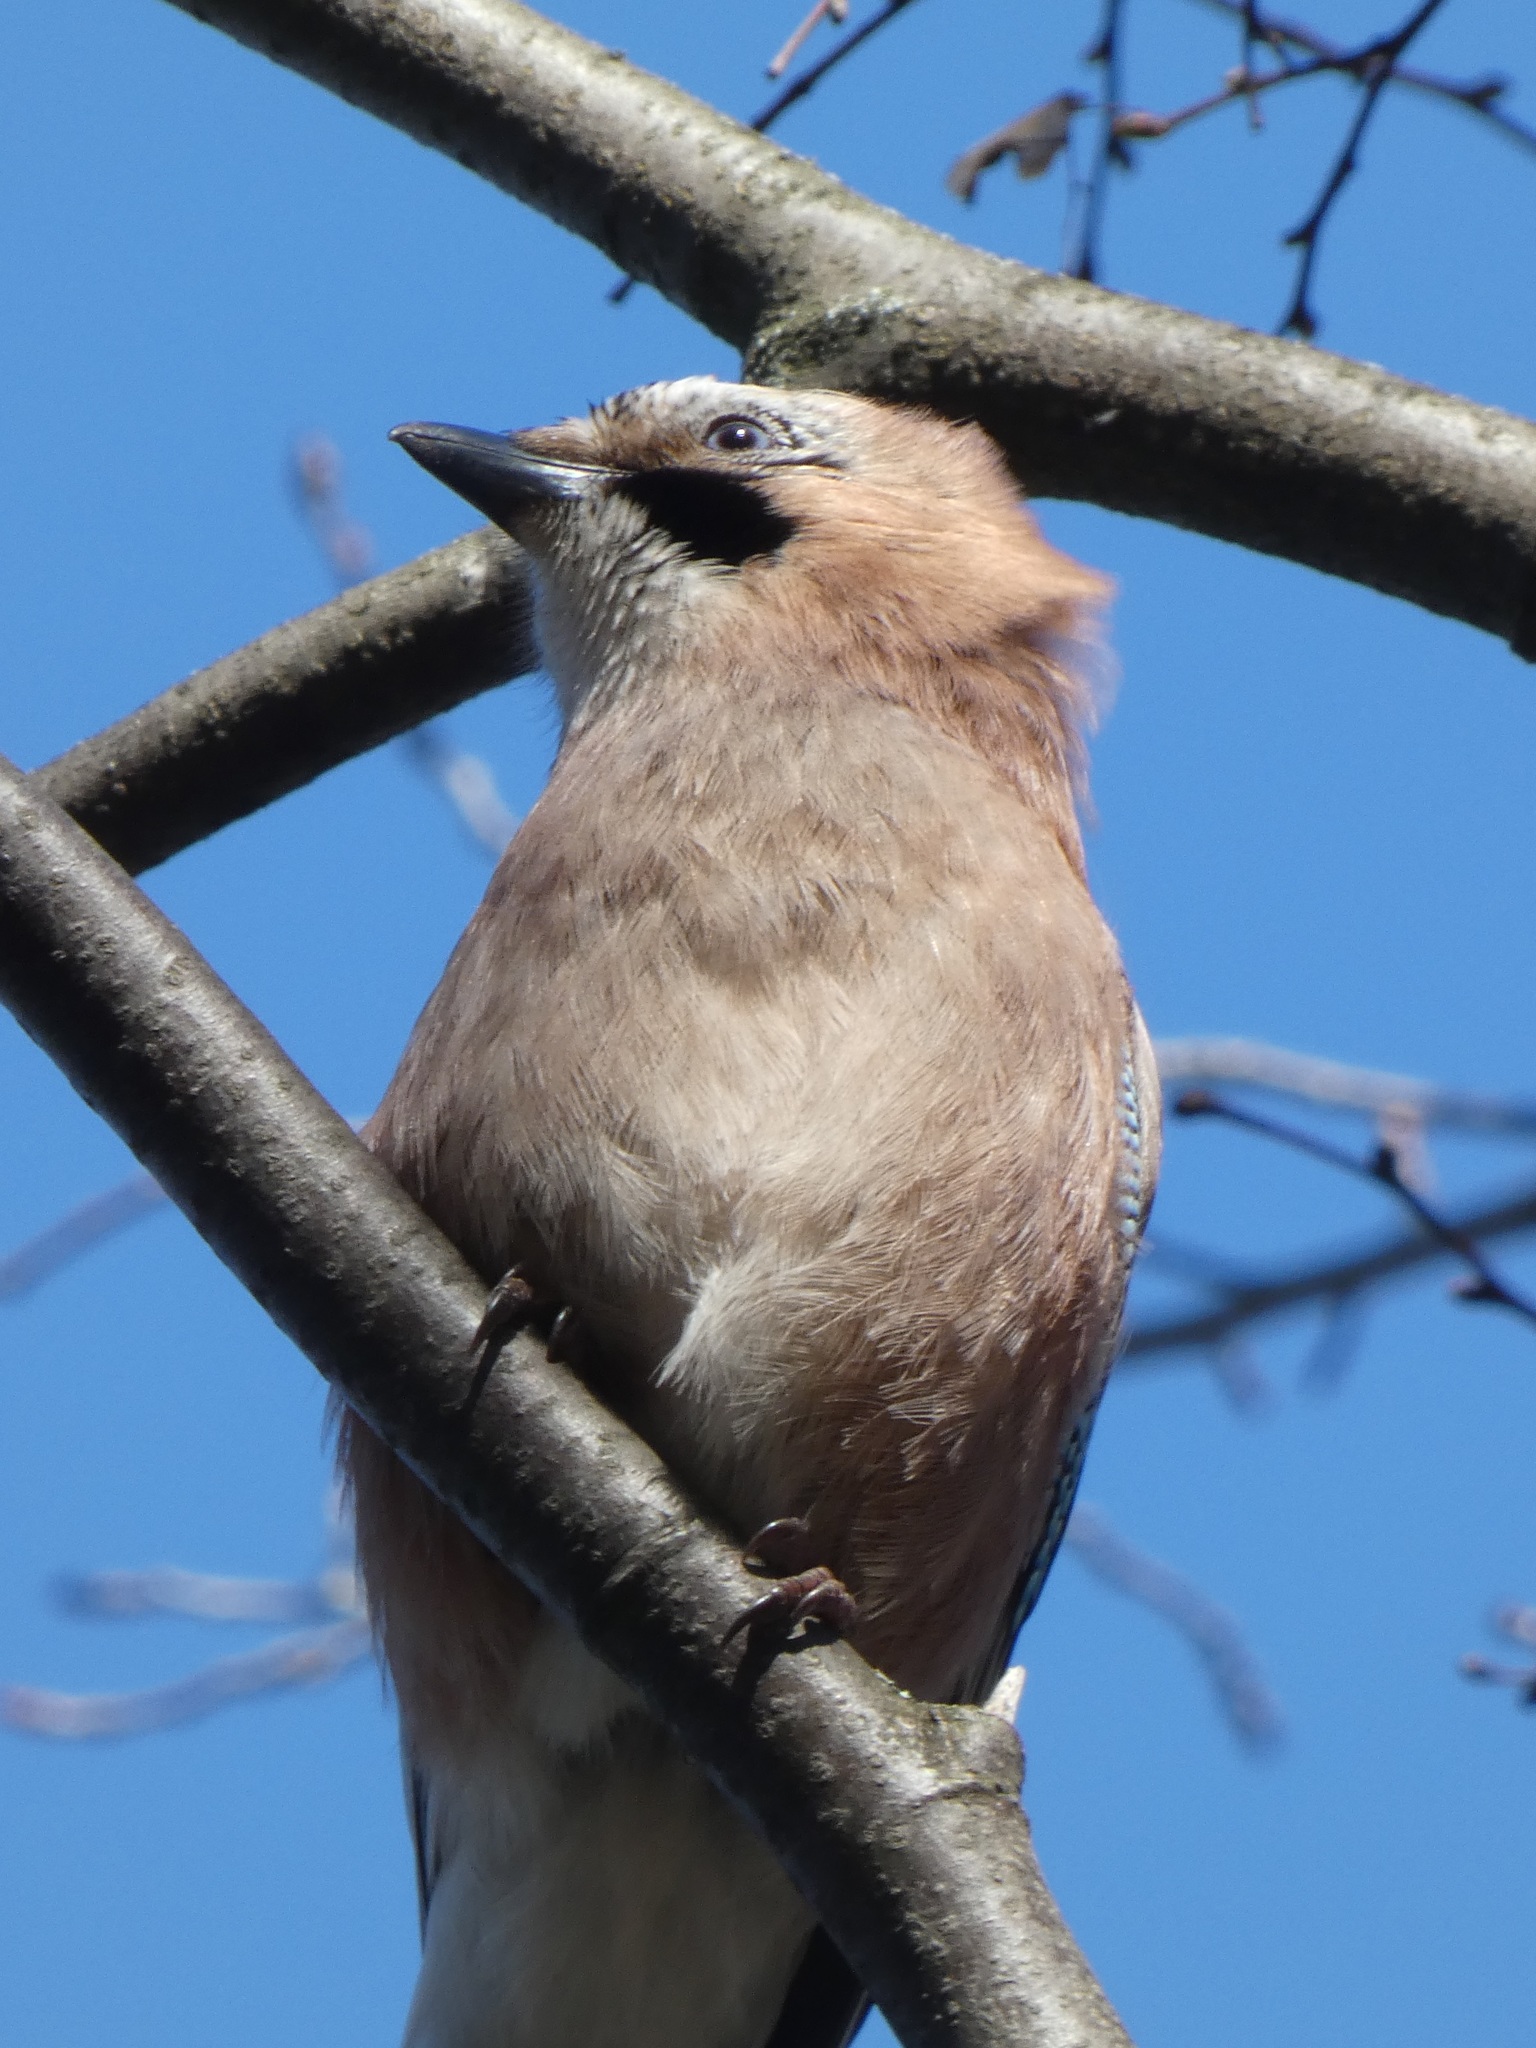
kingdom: Animalia
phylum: Chordata
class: Aves
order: Passeriformes
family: Corvidae
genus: Garrulus
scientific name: Garrulus glandarius
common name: Eurasian jay
